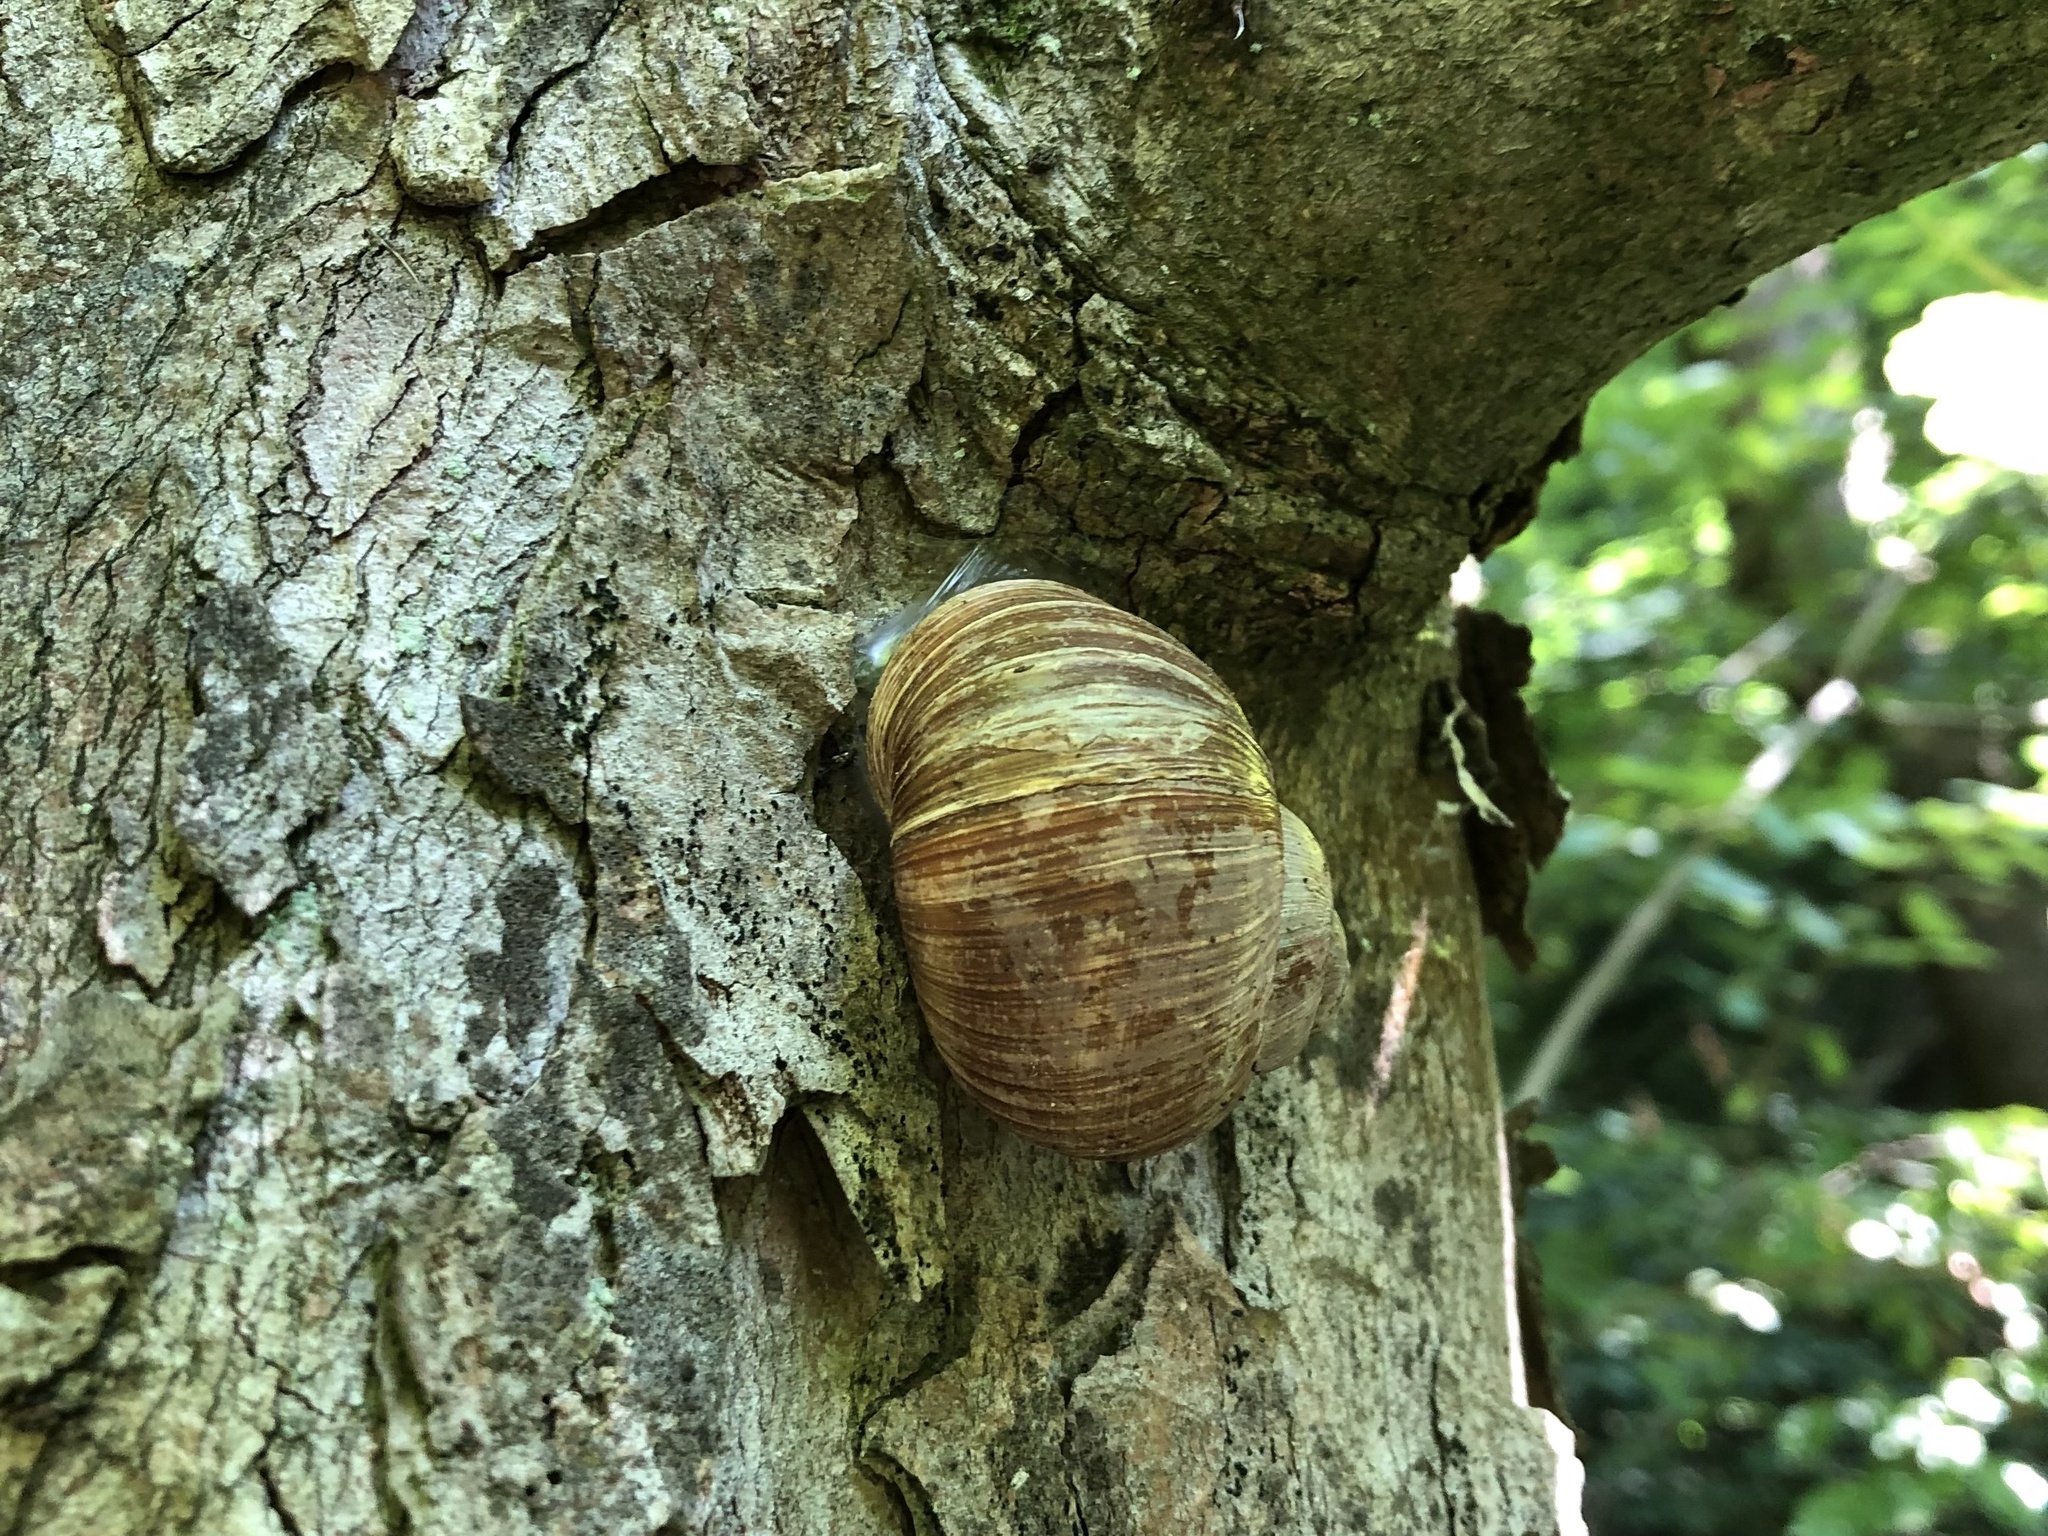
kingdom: Animalia
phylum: Mollusca
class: Gastropoda
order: Stylommatophora
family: Helicidae
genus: Helix
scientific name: Helix pomatia
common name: Roman snail
